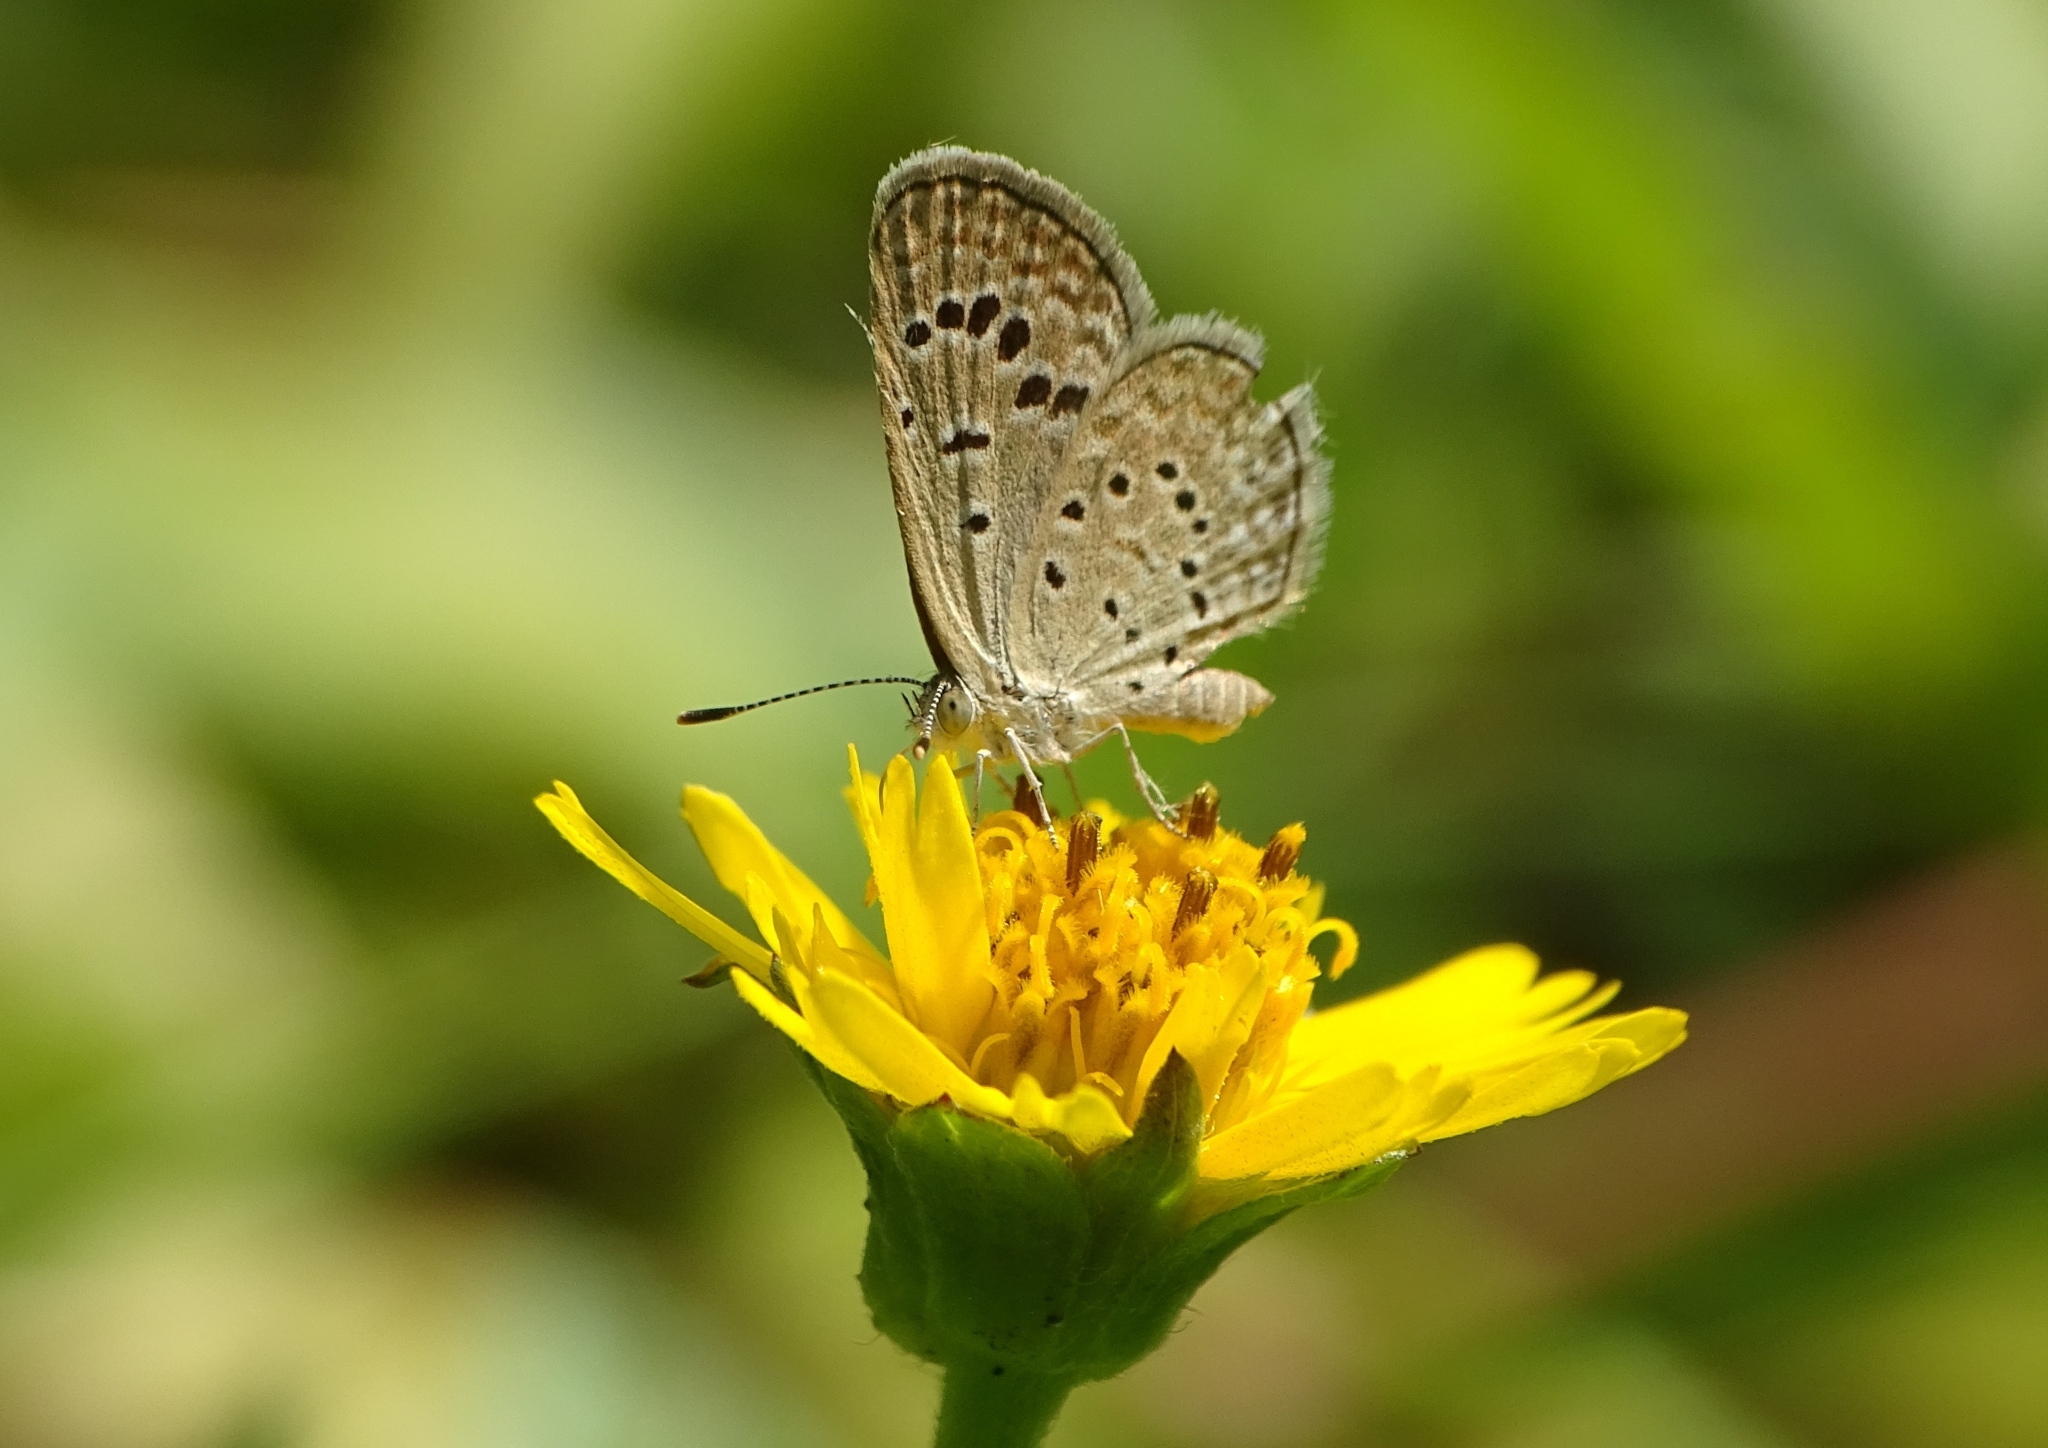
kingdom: Animalia
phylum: Arthropoda
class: Insecta
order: Lepidoptera
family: Lycaenidae
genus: Zizeeria
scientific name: Zizeeria karsandra
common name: Dark grass blue
